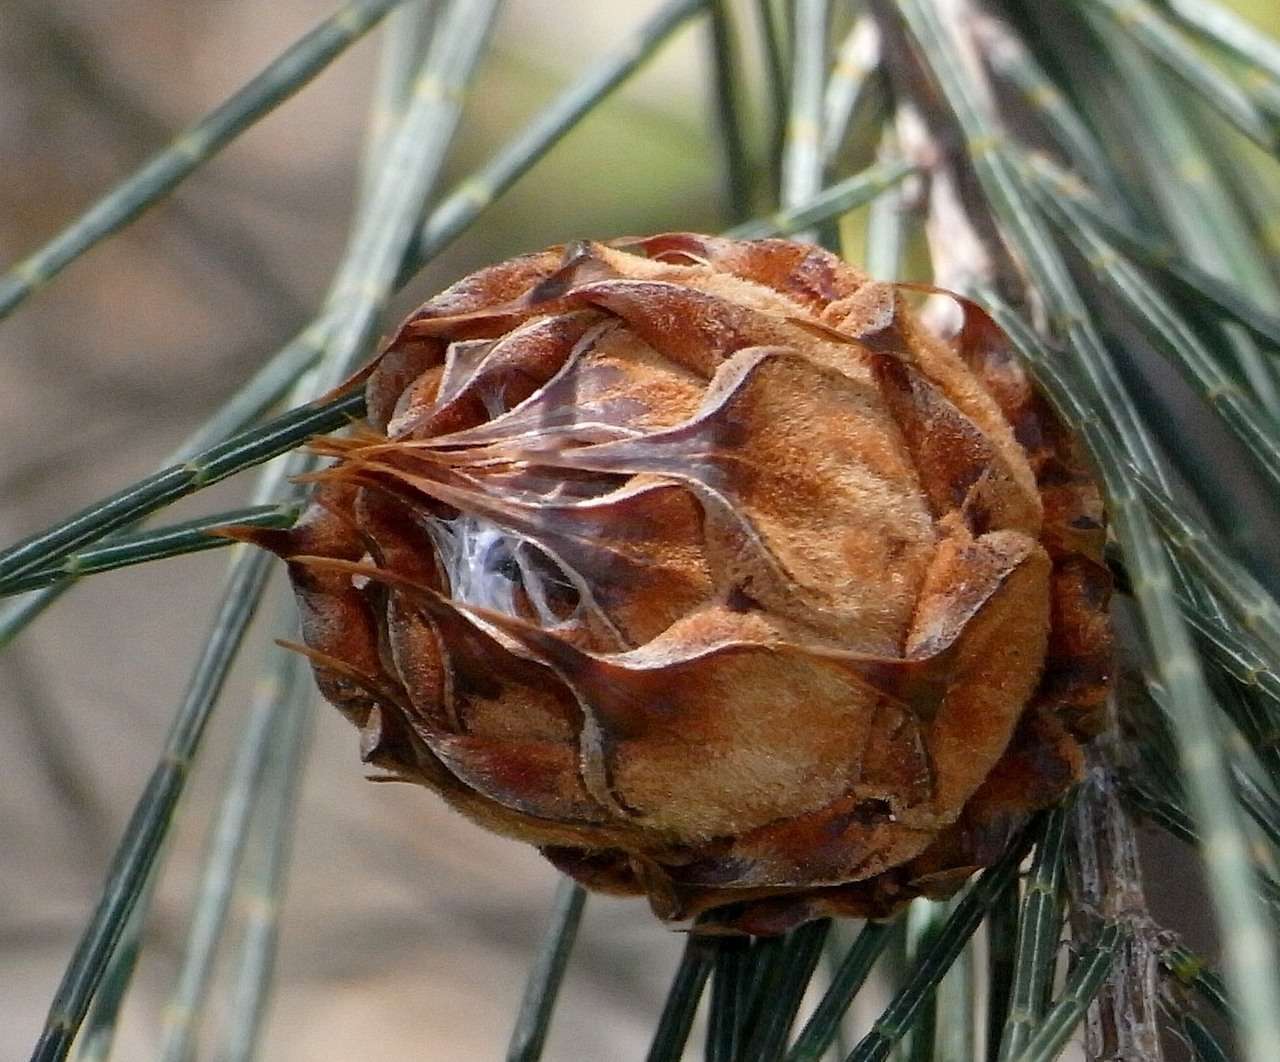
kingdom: Plantae
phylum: Tracheophyta
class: Magnoliopsida
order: Fagales
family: Casuarinaceae
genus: Allocasuarina
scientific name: Allocasuarina littoralis
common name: Black she-oak
